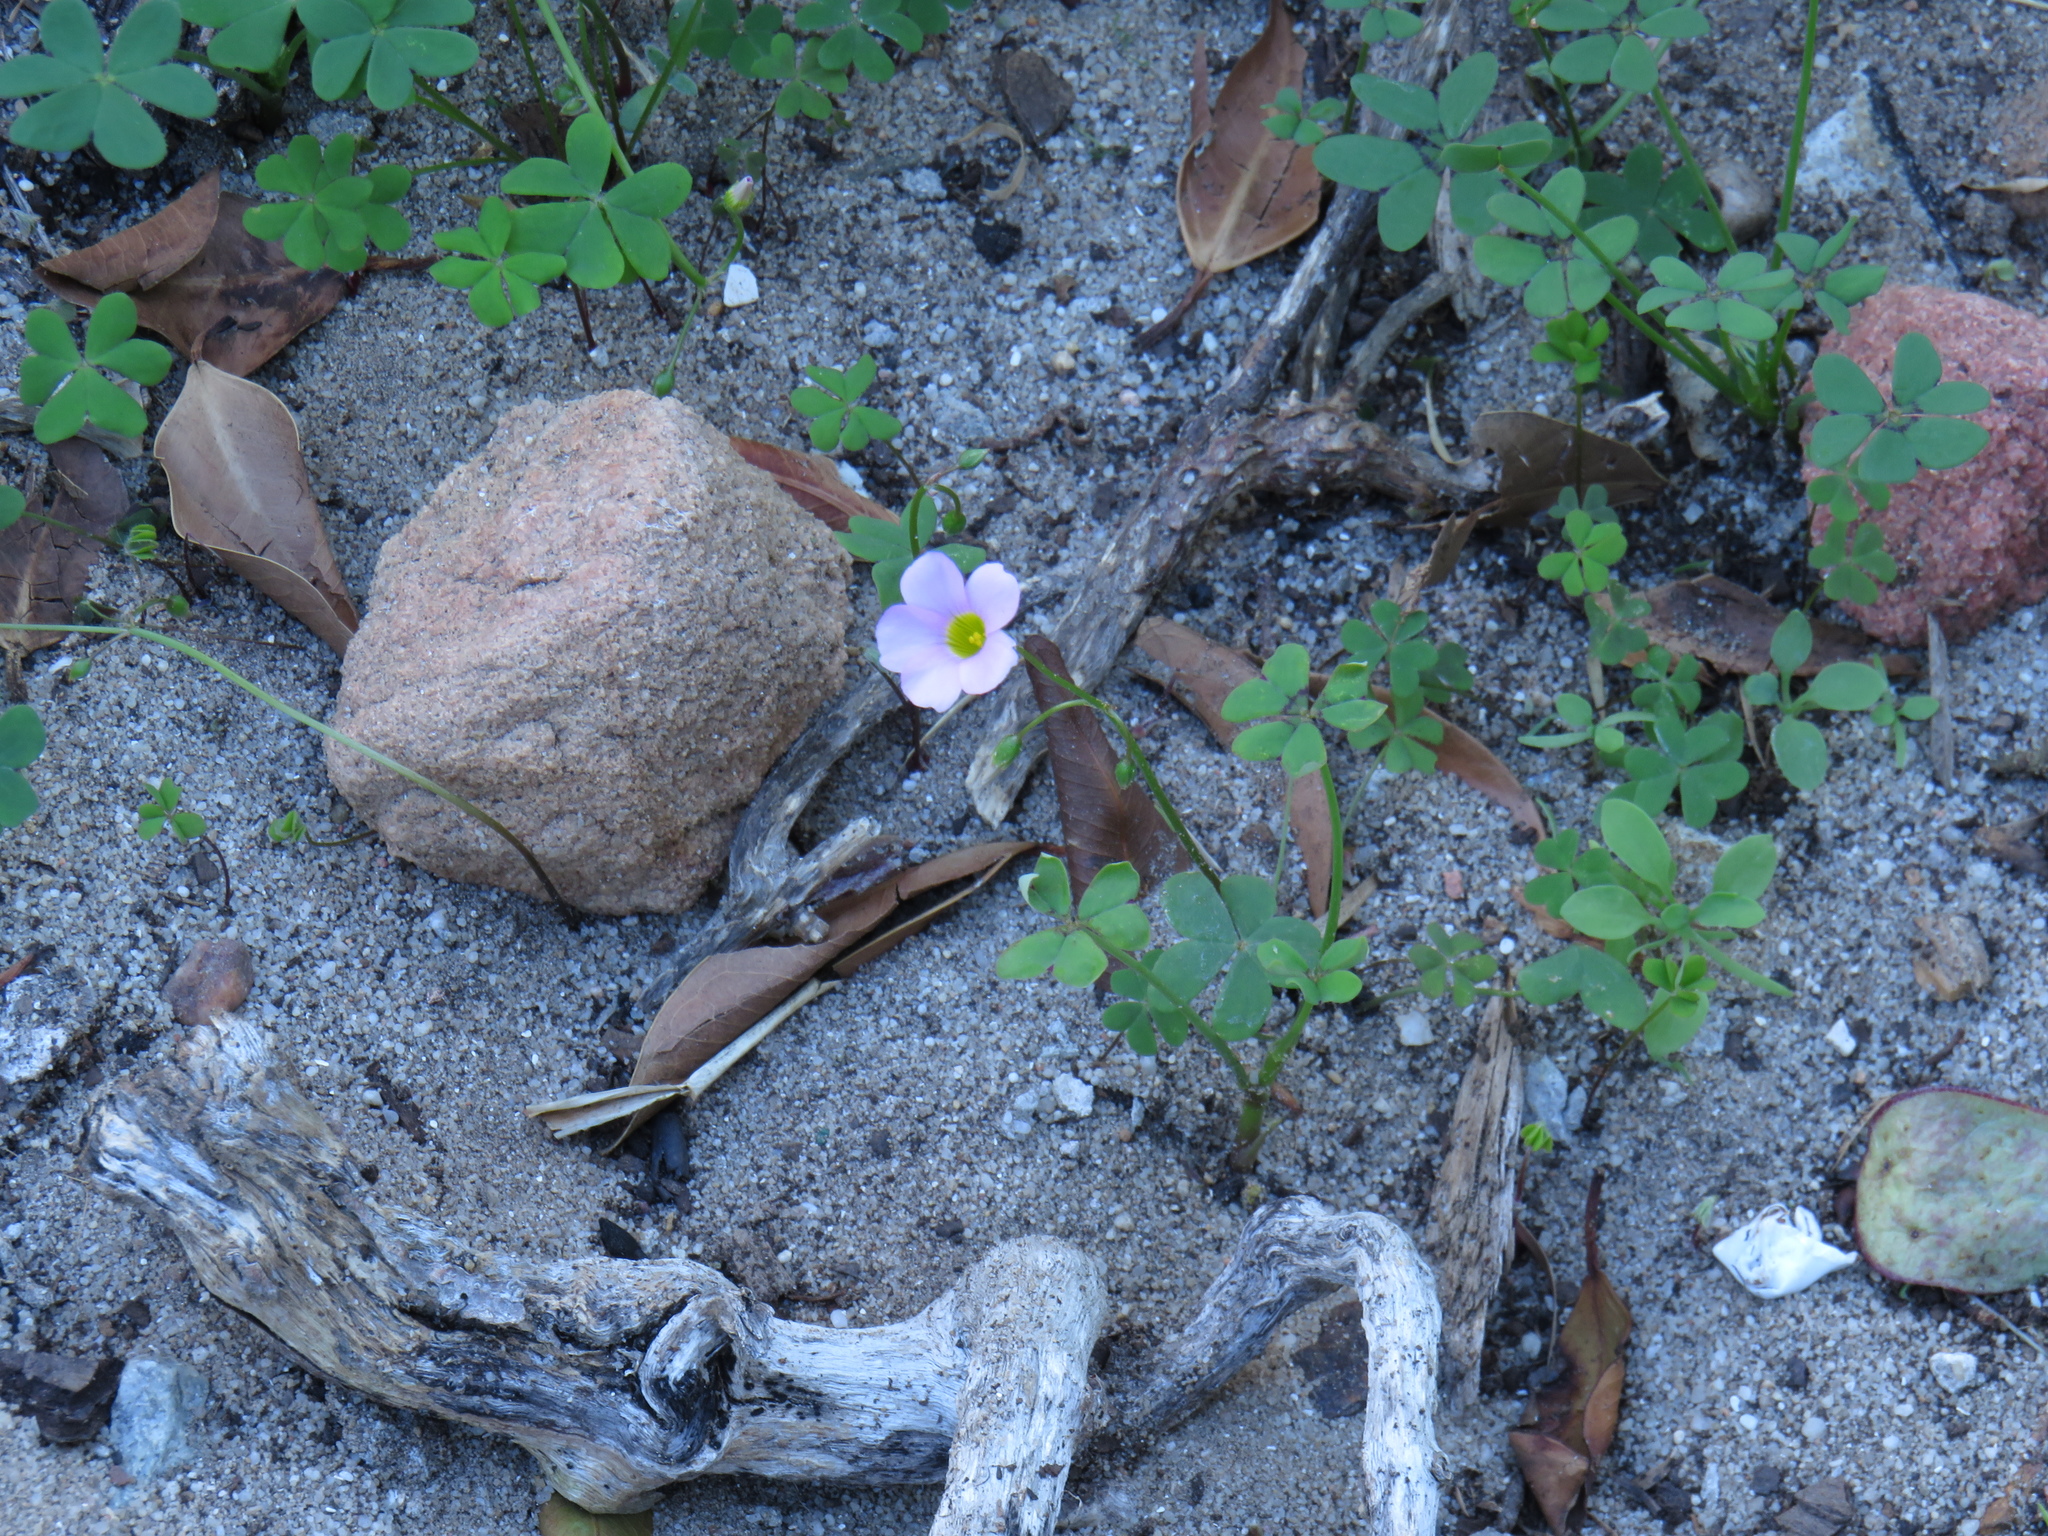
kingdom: Plantae
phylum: Tracheophyta
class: Magnoliopsida
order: Oxalidales
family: Oxalidaceae
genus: Oxalis
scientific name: Oxalis caprina
